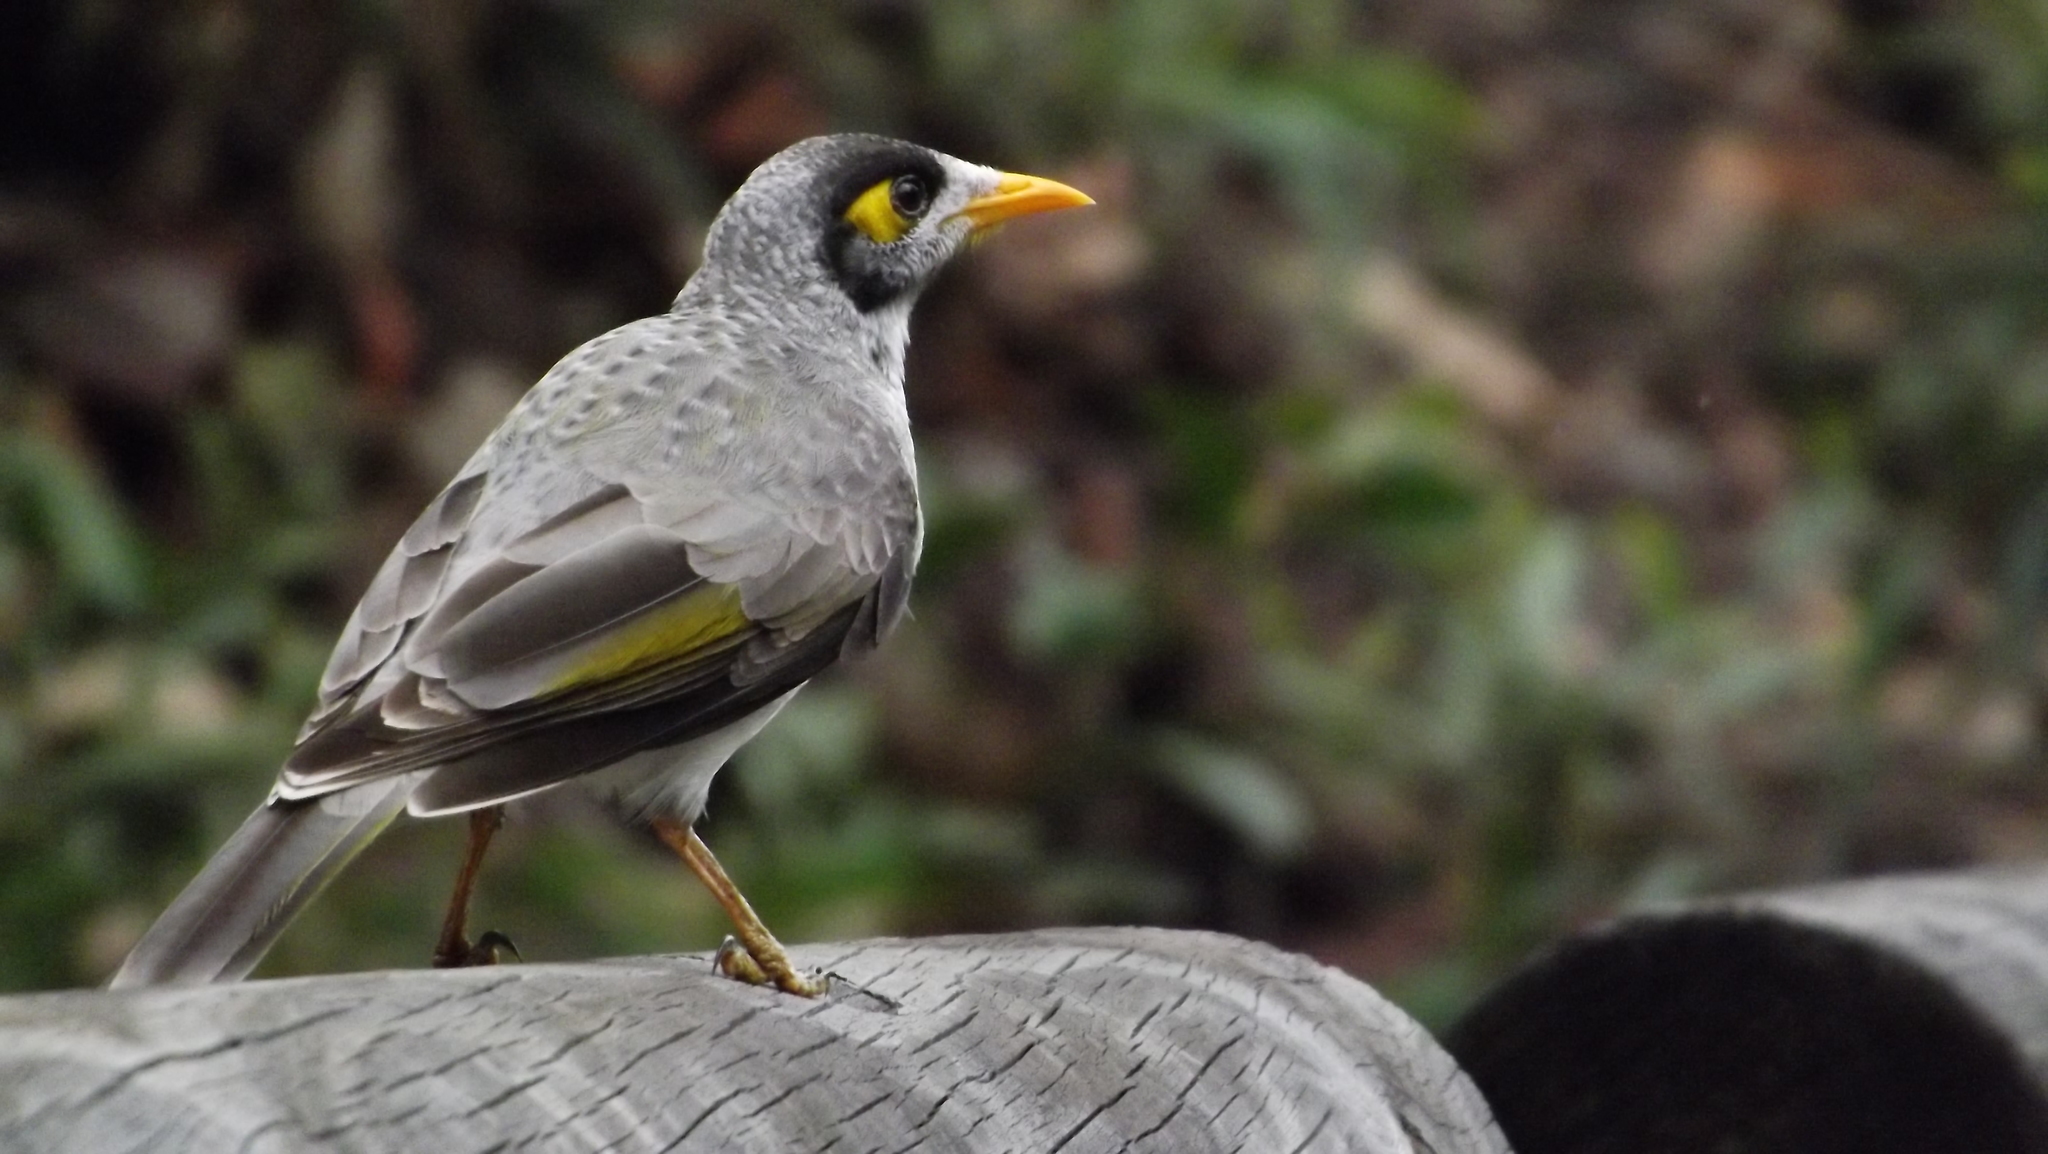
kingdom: Animalia
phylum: Chordata
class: Aves
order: Passeriformes
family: Meliphagidae
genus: Manorina
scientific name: Manorina melanocephala
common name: Noisy miner
